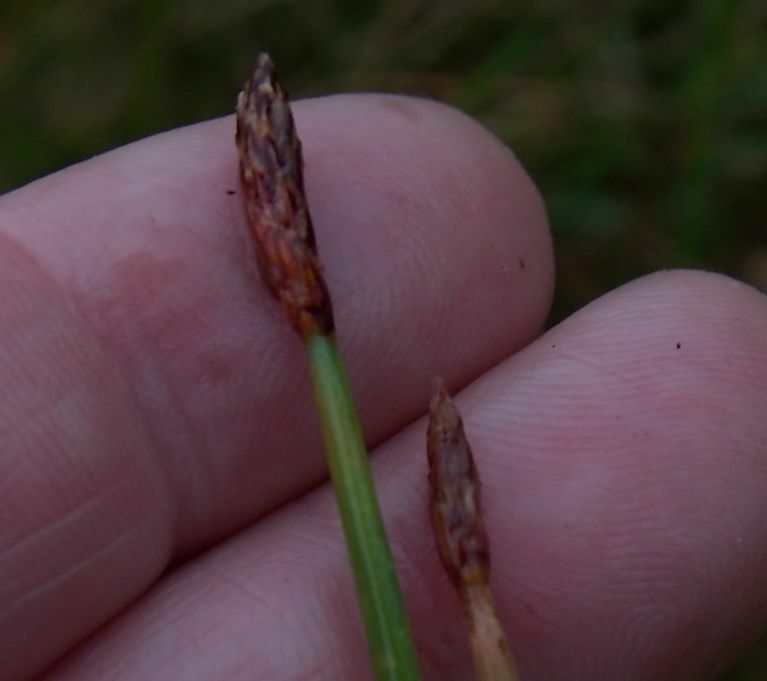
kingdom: Plantae
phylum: Tracheophyta
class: Liliopsida
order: Poales
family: Cyperaceae
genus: Eleocharis
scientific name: Eleocharis palustris
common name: Common spike-rush
